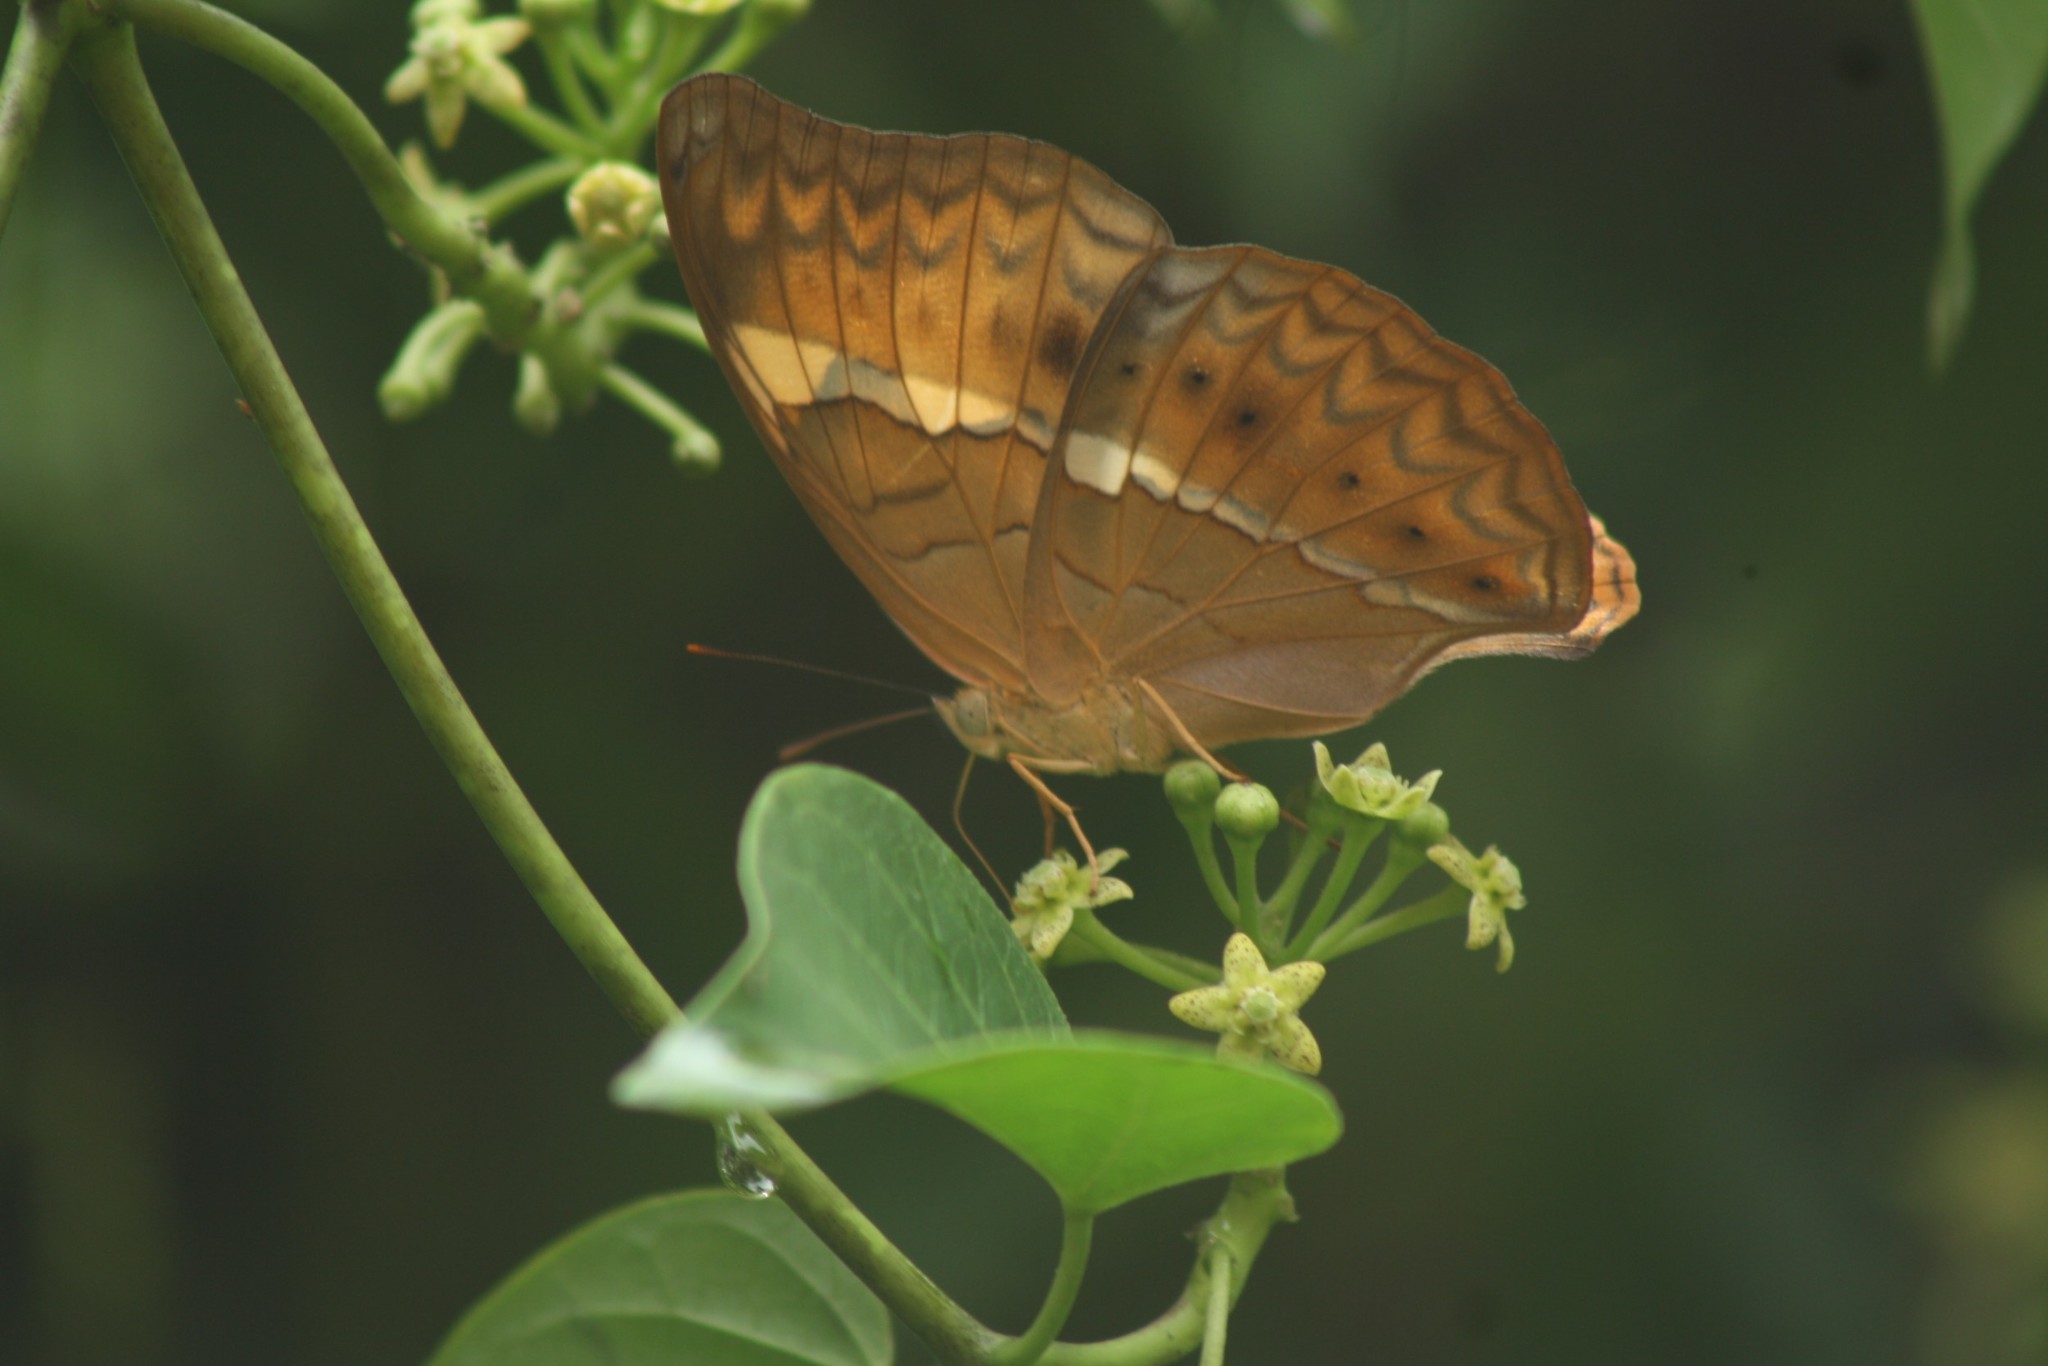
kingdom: Animalia
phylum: Arthropoda
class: Insecta
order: Lepidoptera
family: Nymphalidae
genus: Cirrochroa
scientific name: Cirrochroa thais
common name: Tamil yeoman
